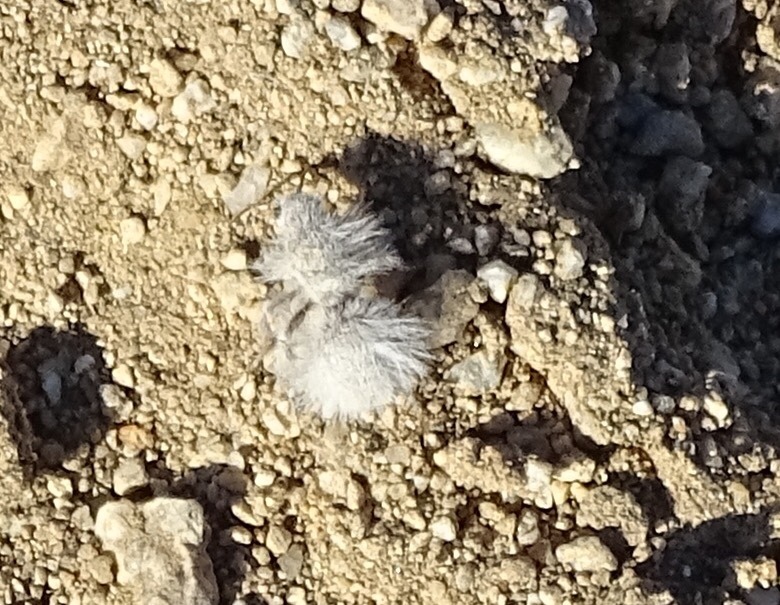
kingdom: Animalia
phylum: Arthropoda
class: Insecta
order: Hymenoptera
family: Mutillidae
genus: Dasymutilla
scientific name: Dasymutilla gloriosa
